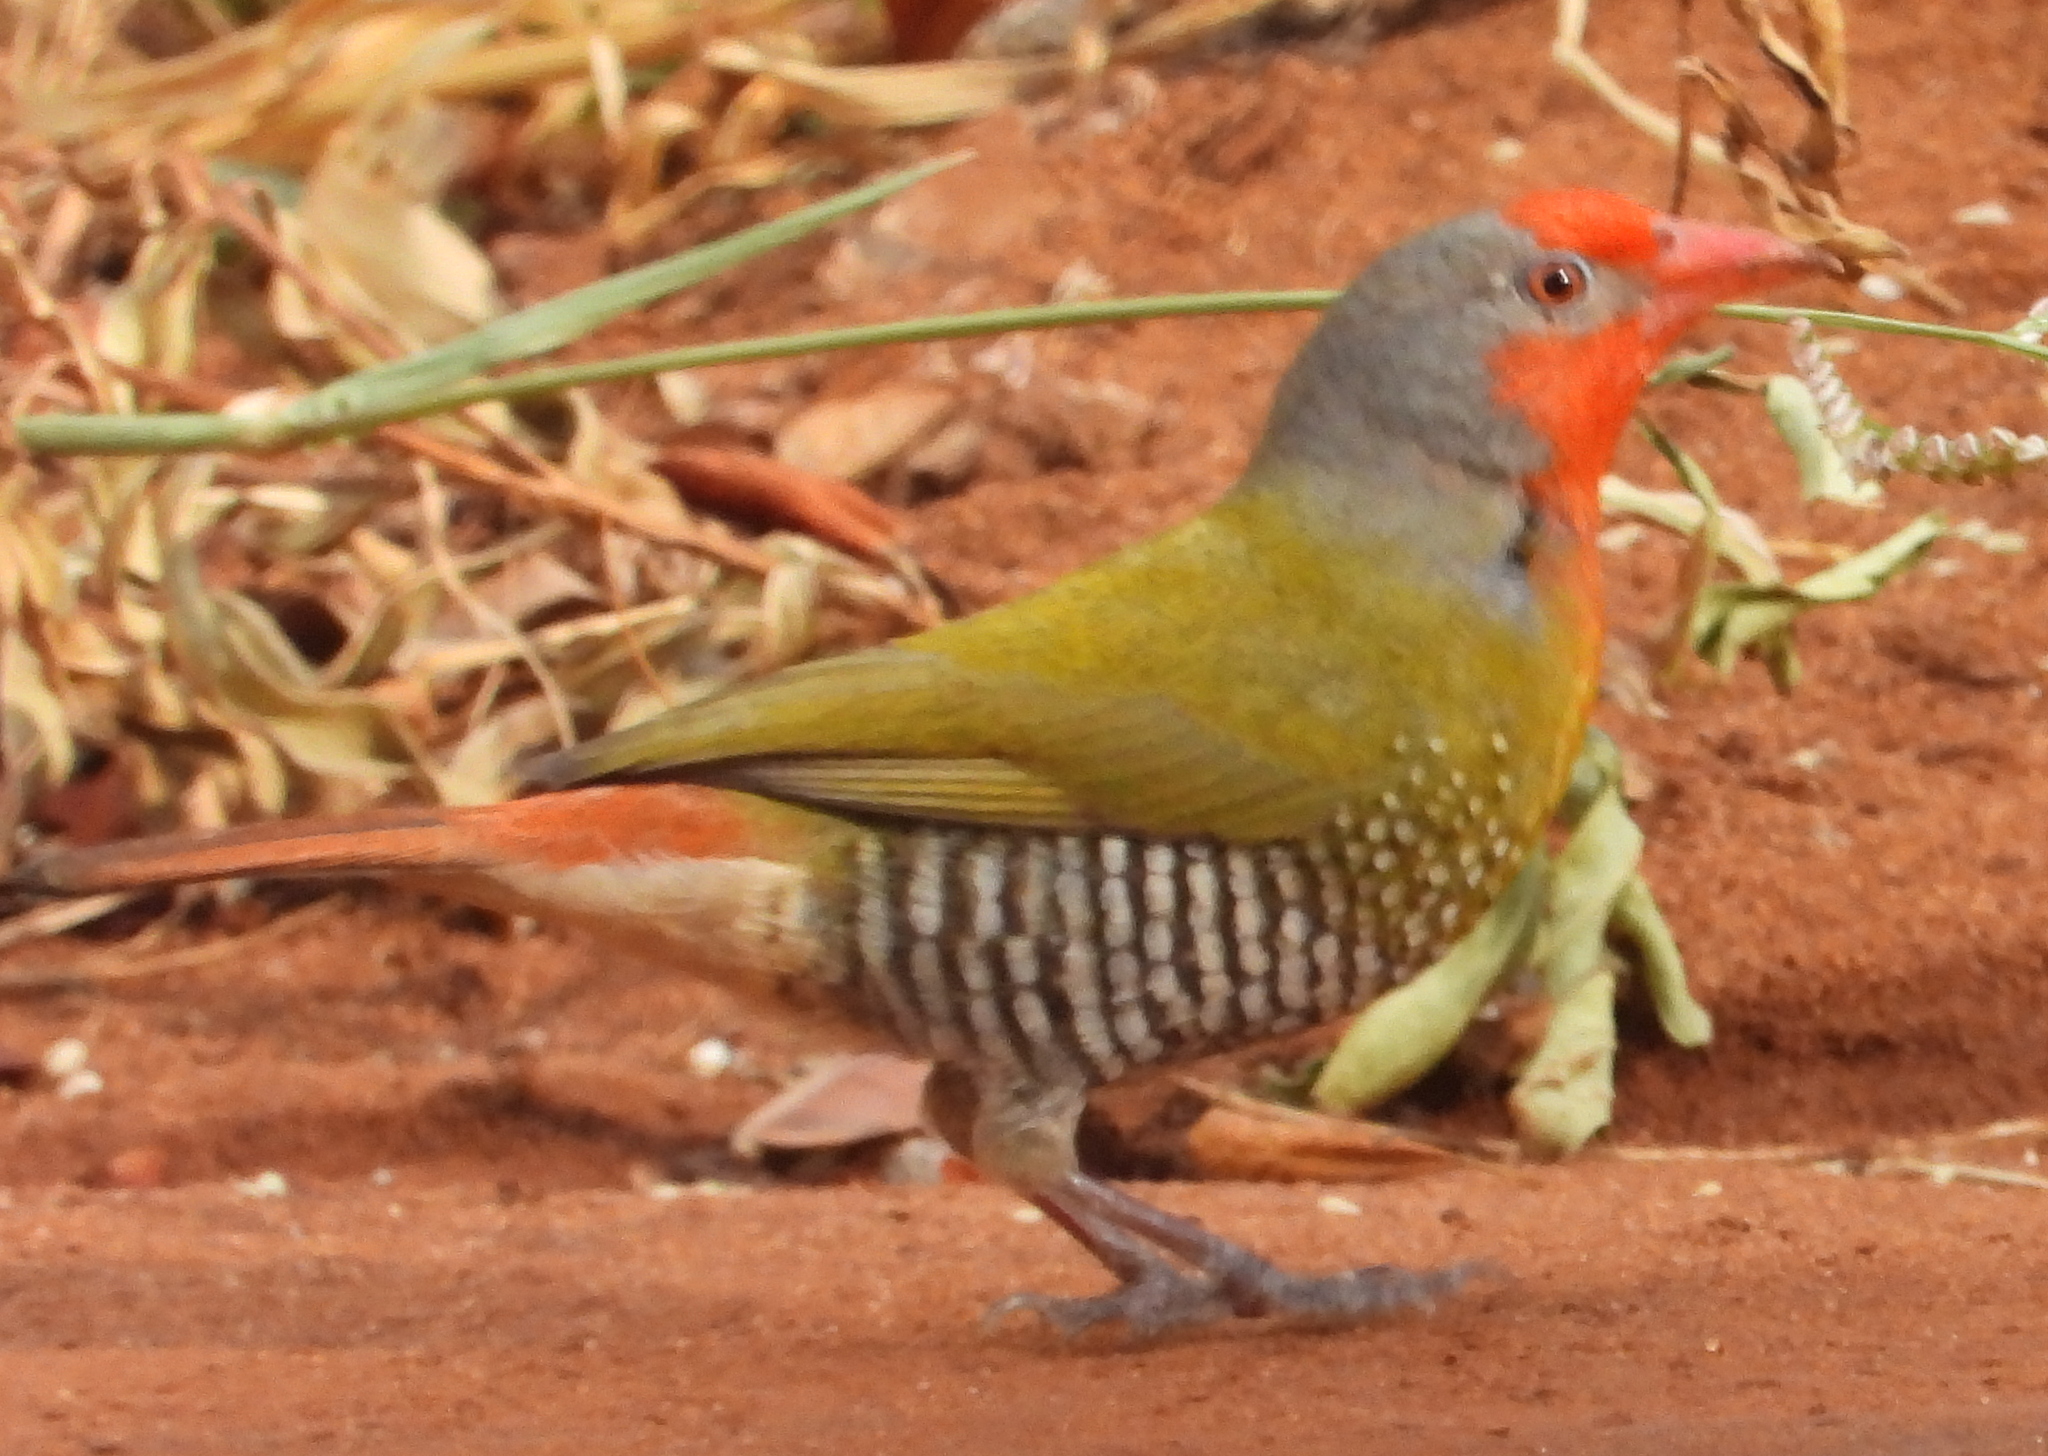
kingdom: Animalia
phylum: Chordata
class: Aves
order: Passeriformes
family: Estrildidae
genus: Pytilia
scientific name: Pytilia melba
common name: Green-winged pytilia
